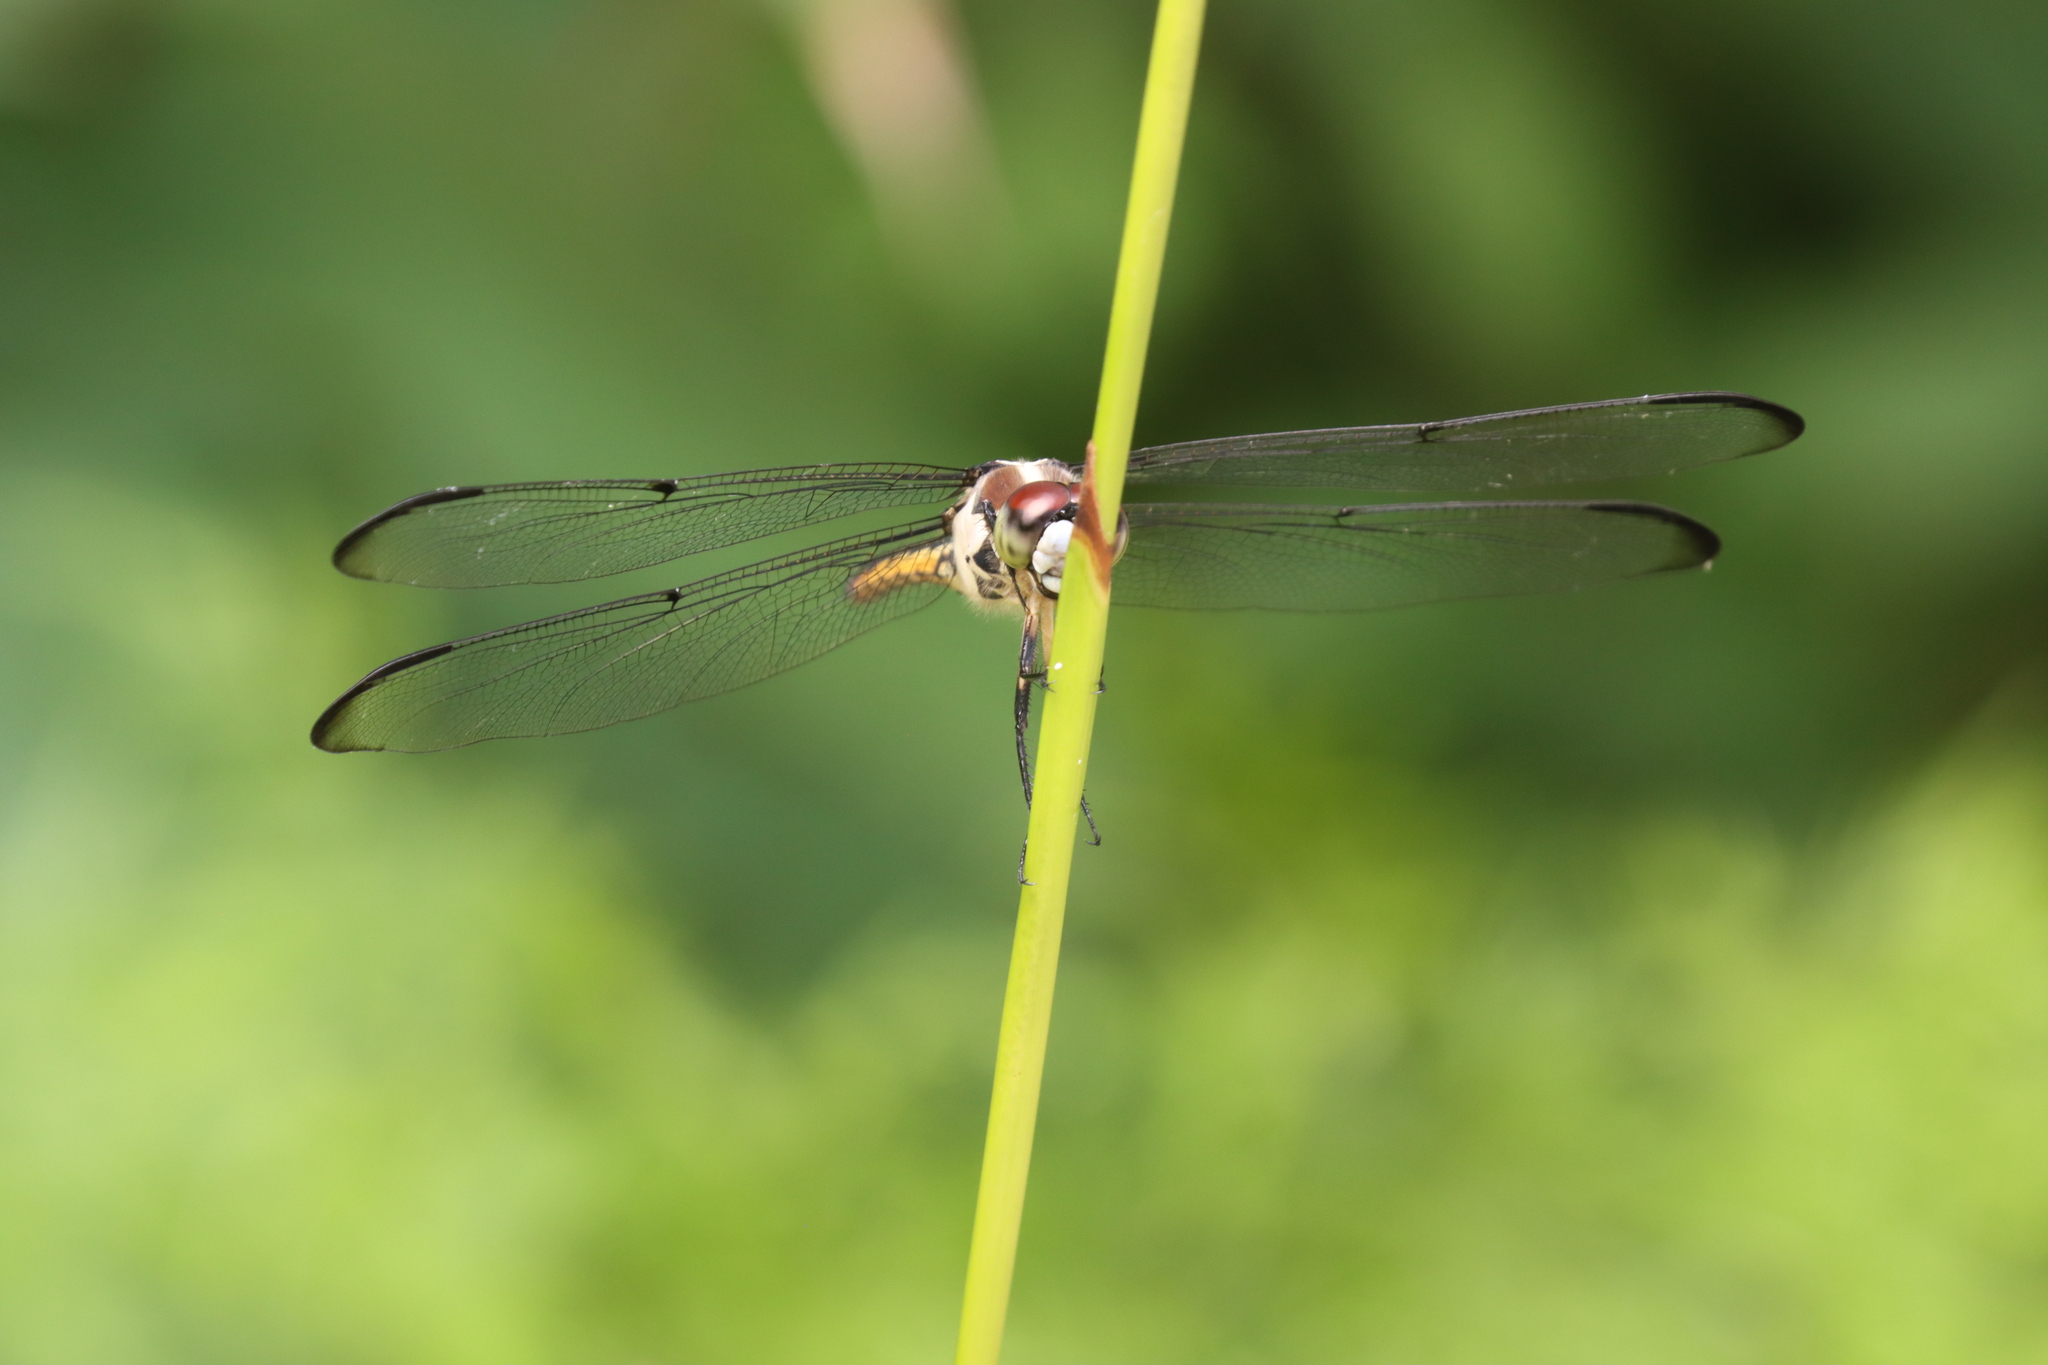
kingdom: Animalia
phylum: Arthropoda
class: Insecta
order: Odonata
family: Libellulidae
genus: Libellula
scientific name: Libellula vibrans
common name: Great blue skimmer
